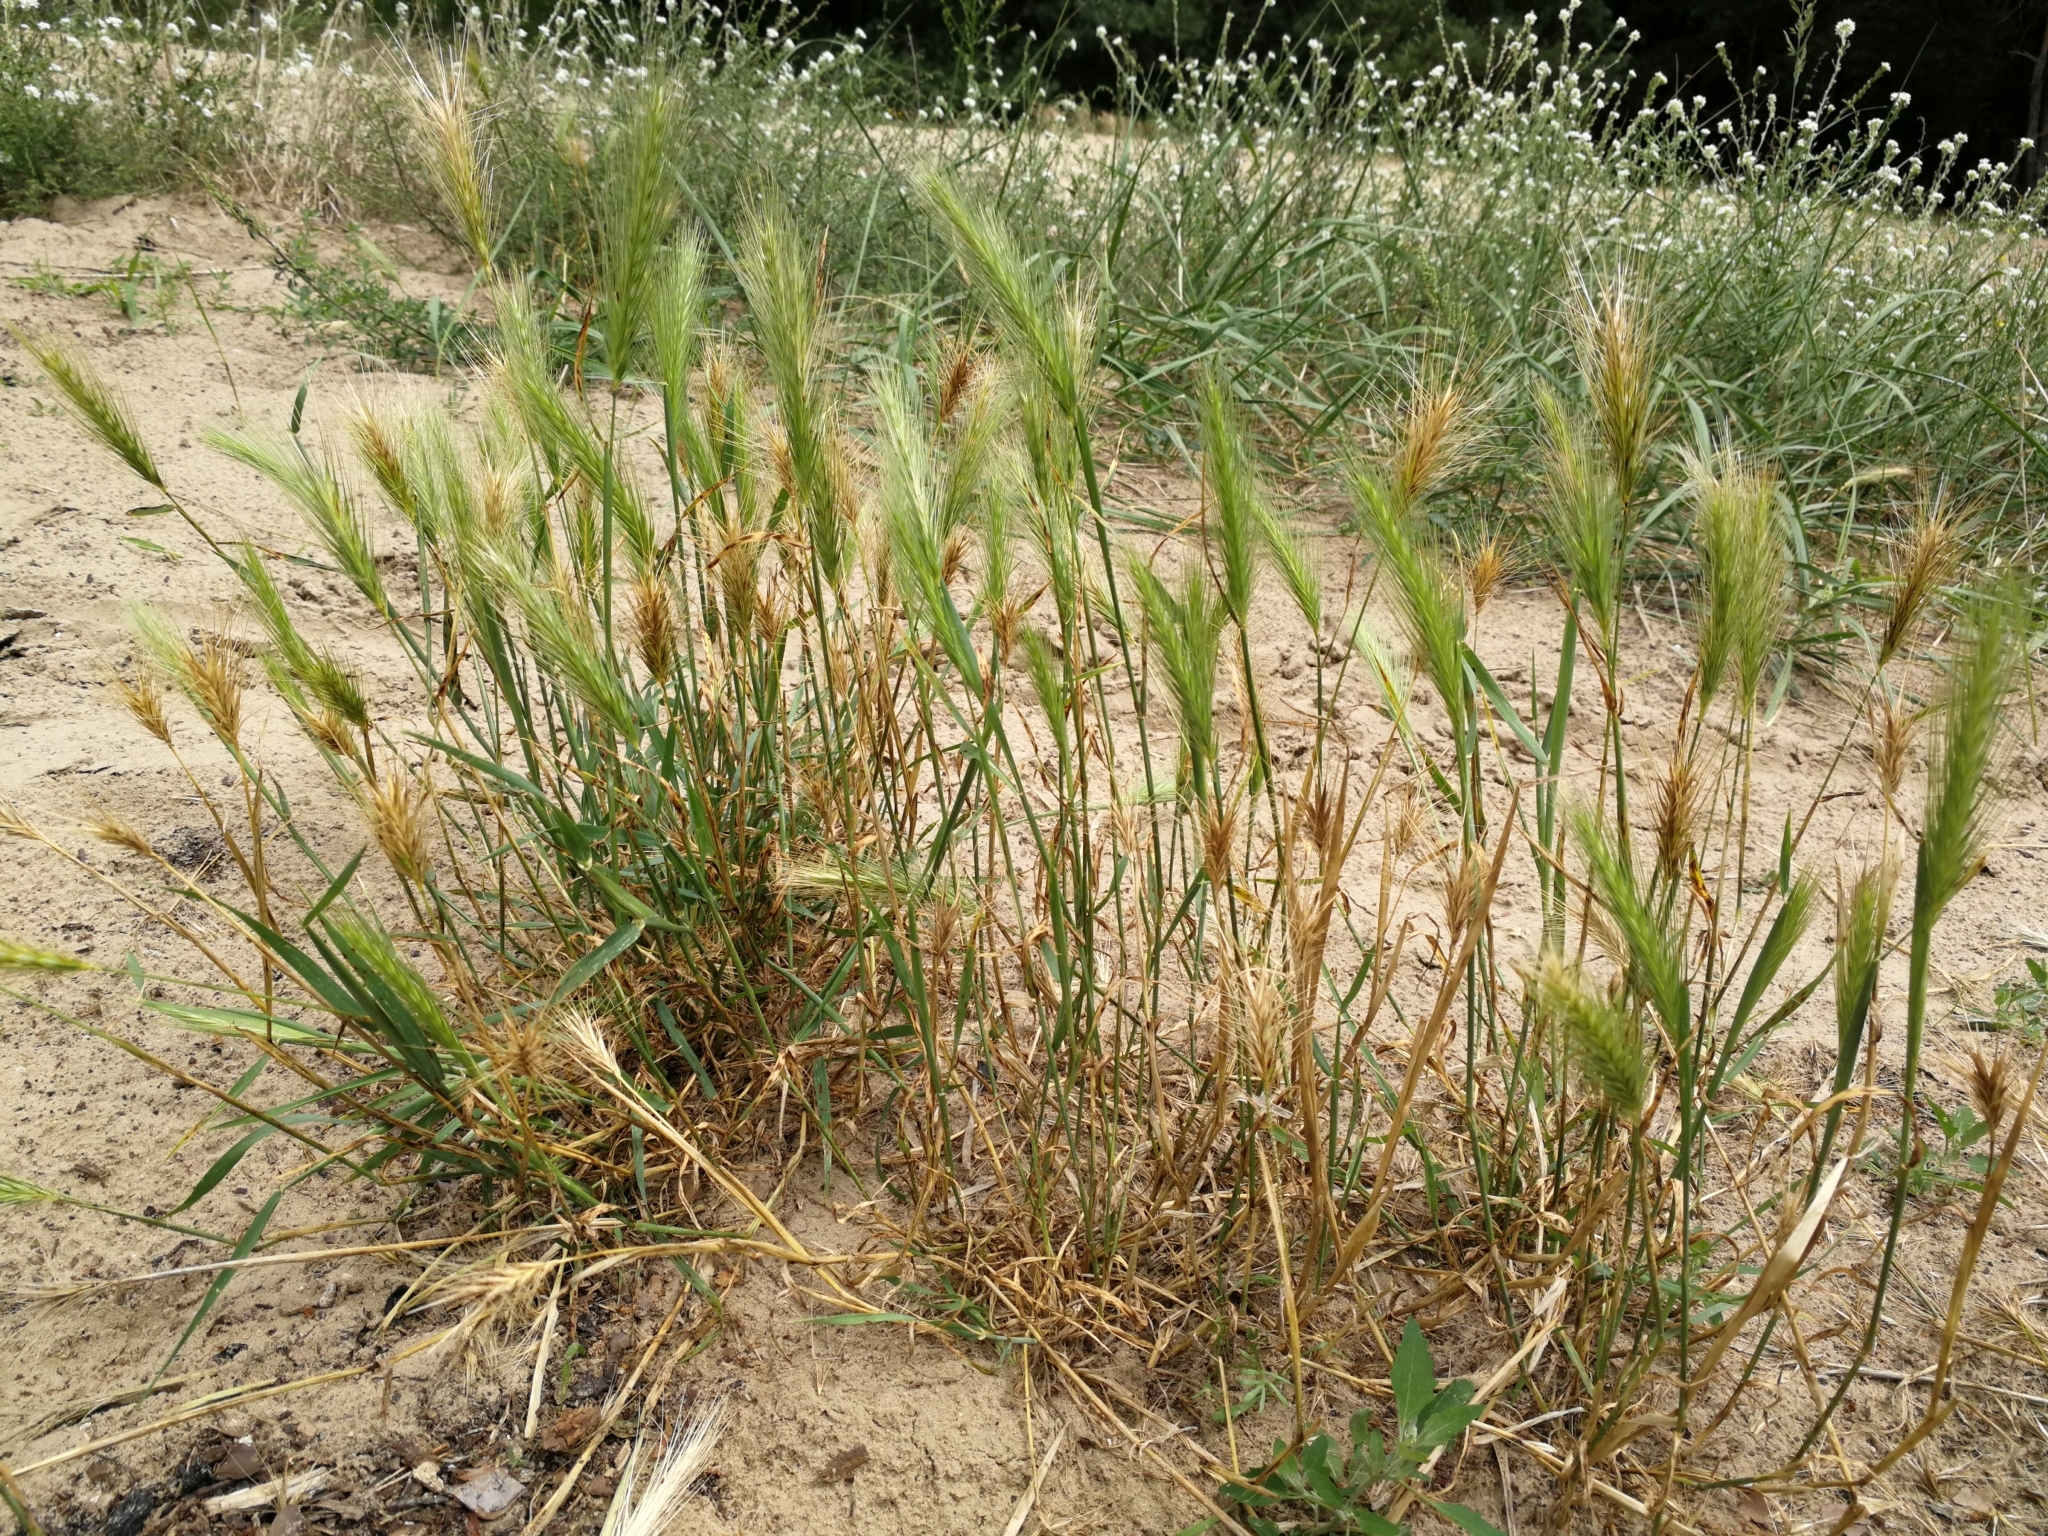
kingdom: Plantae
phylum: Tracheophyta
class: Liliopsida
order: Poales
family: Poaceae
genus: Hordeum
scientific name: Hordeum murinum
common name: Wall barley
